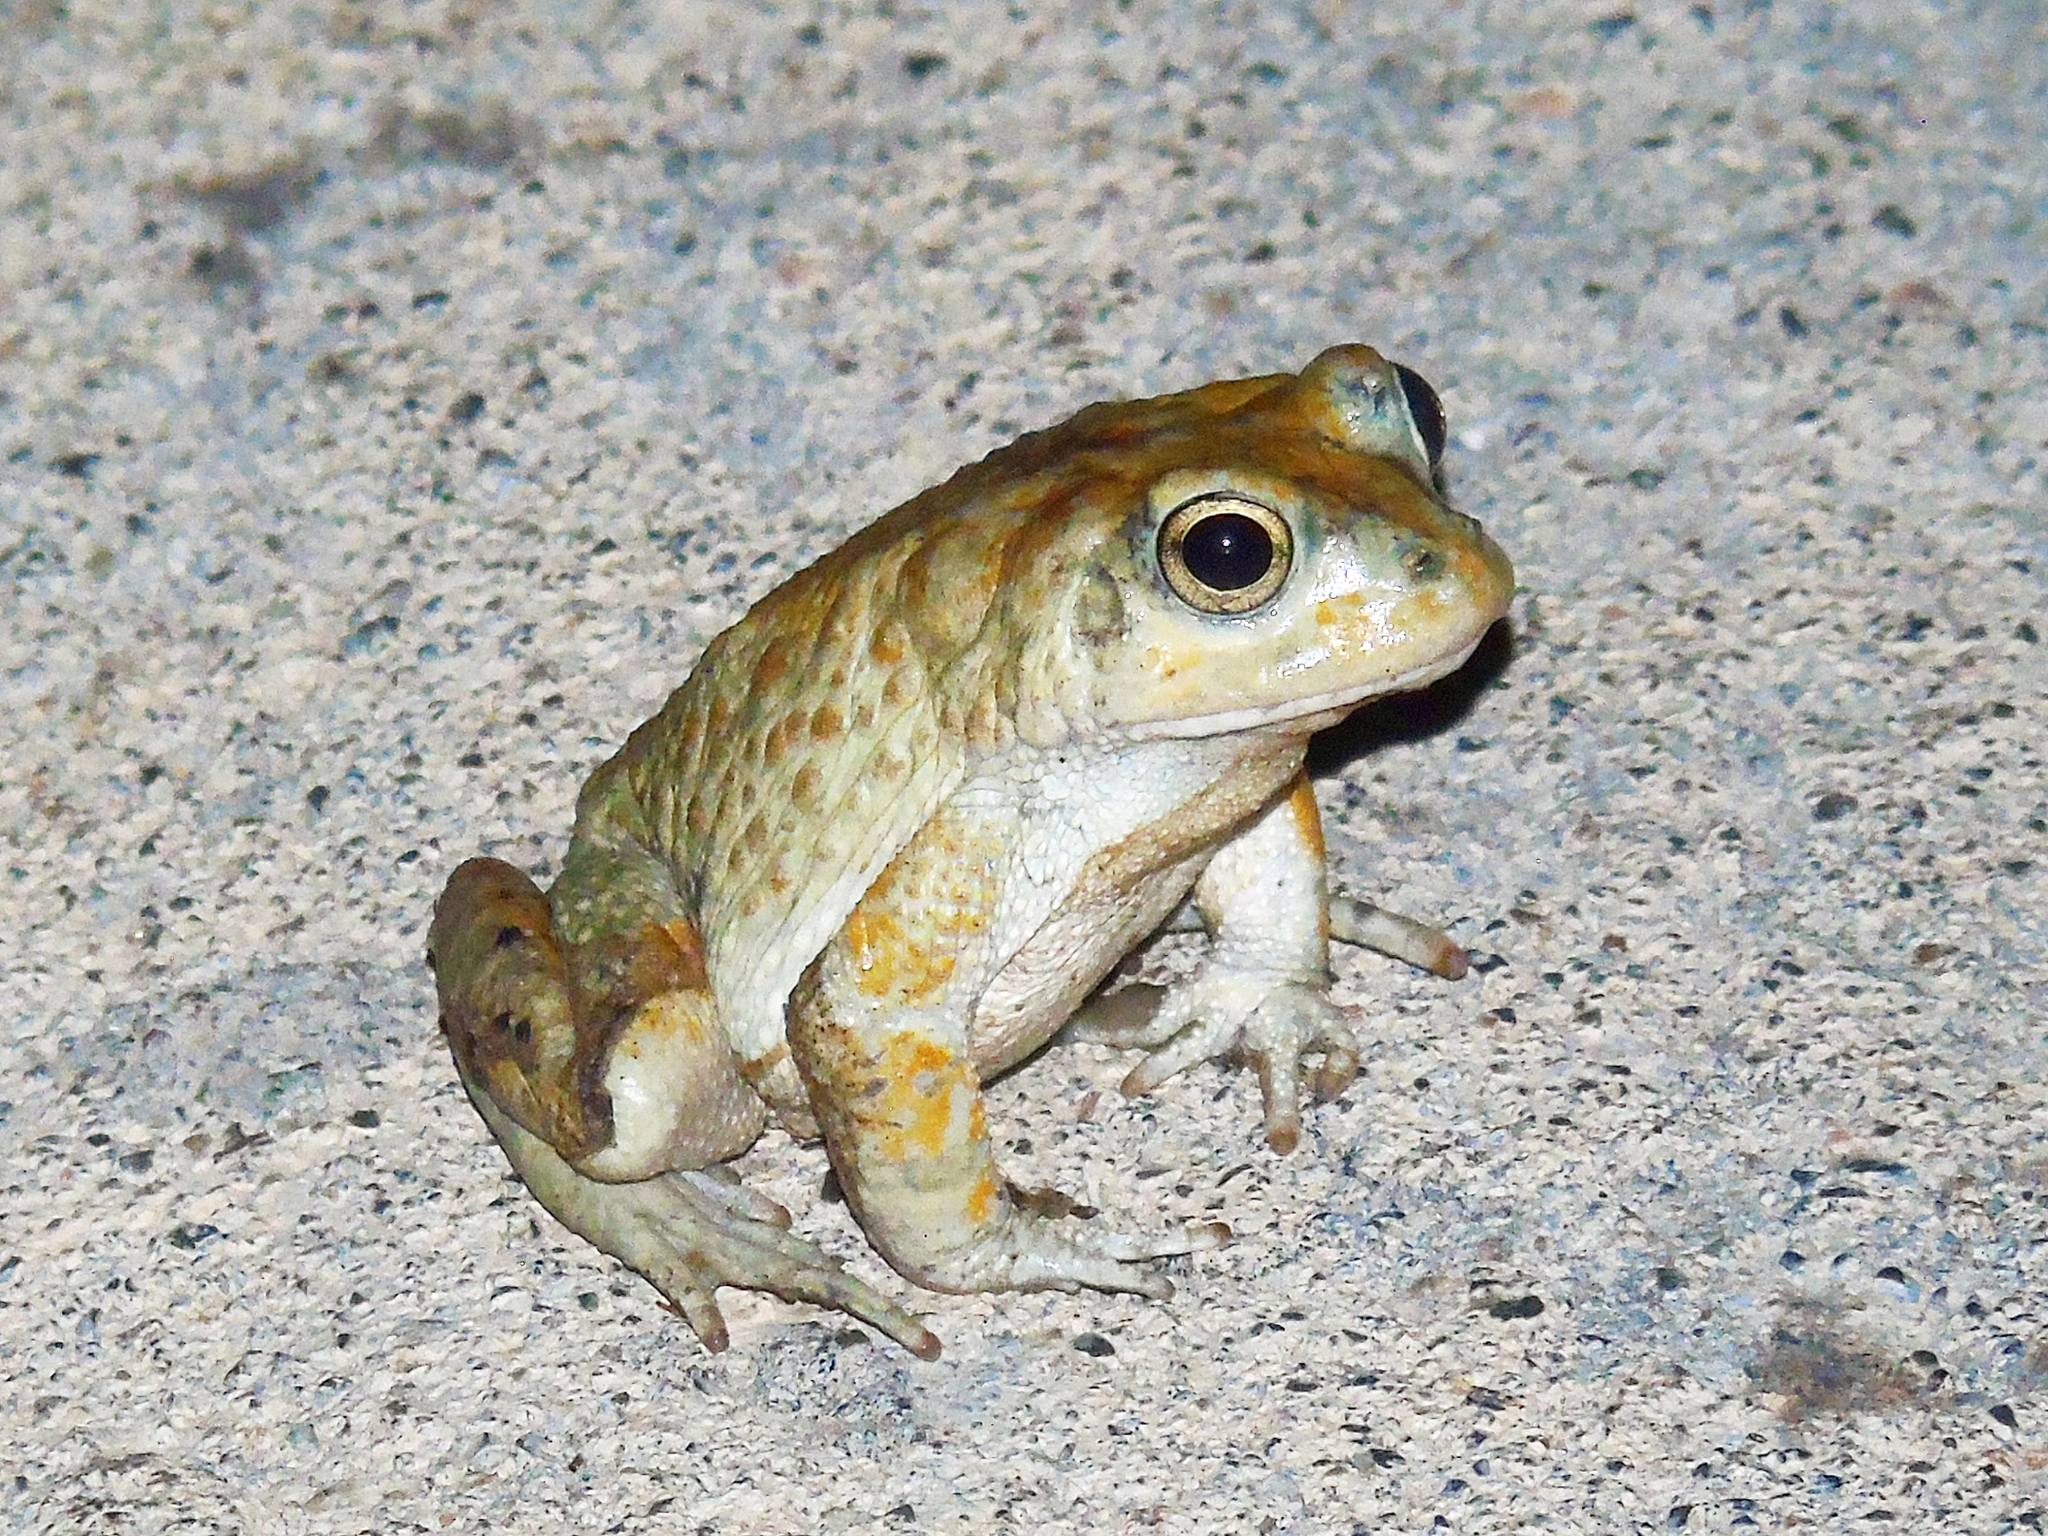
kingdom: Animalia
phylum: Chordata
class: Amphibia
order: Anura
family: Bufonidae
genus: Sclerophrys
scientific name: Sclerophrys arabica
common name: Arabian toad
